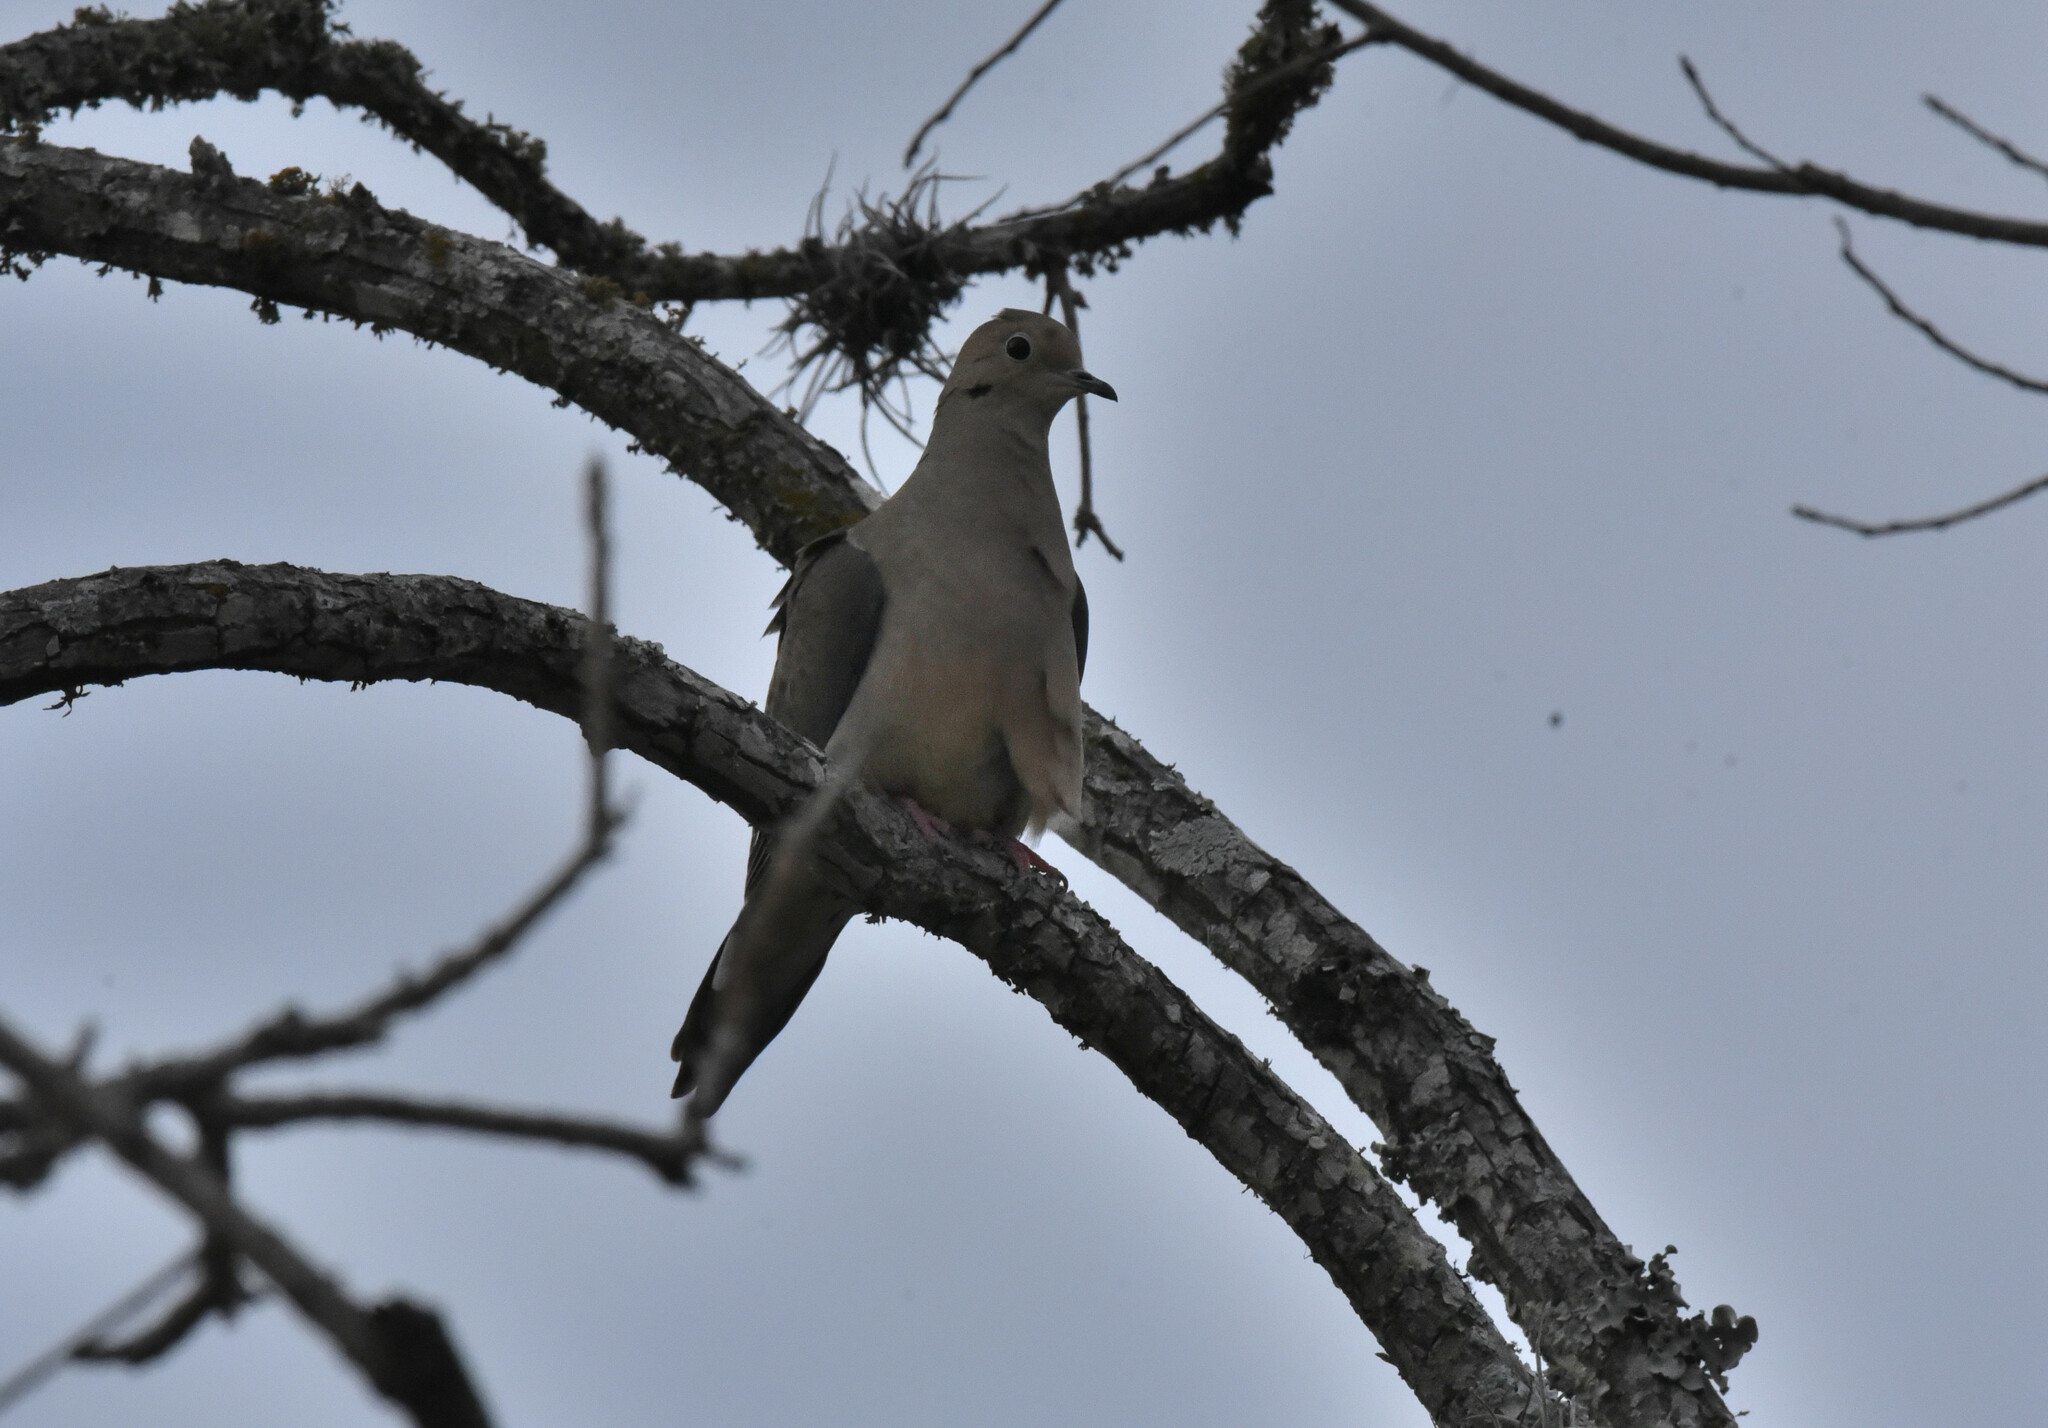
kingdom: Animalia
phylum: Chordata
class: Aves
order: Columbiformes
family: Columbidae
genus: Zenaida
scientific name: Zenaida macroura
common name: Mourning dove
